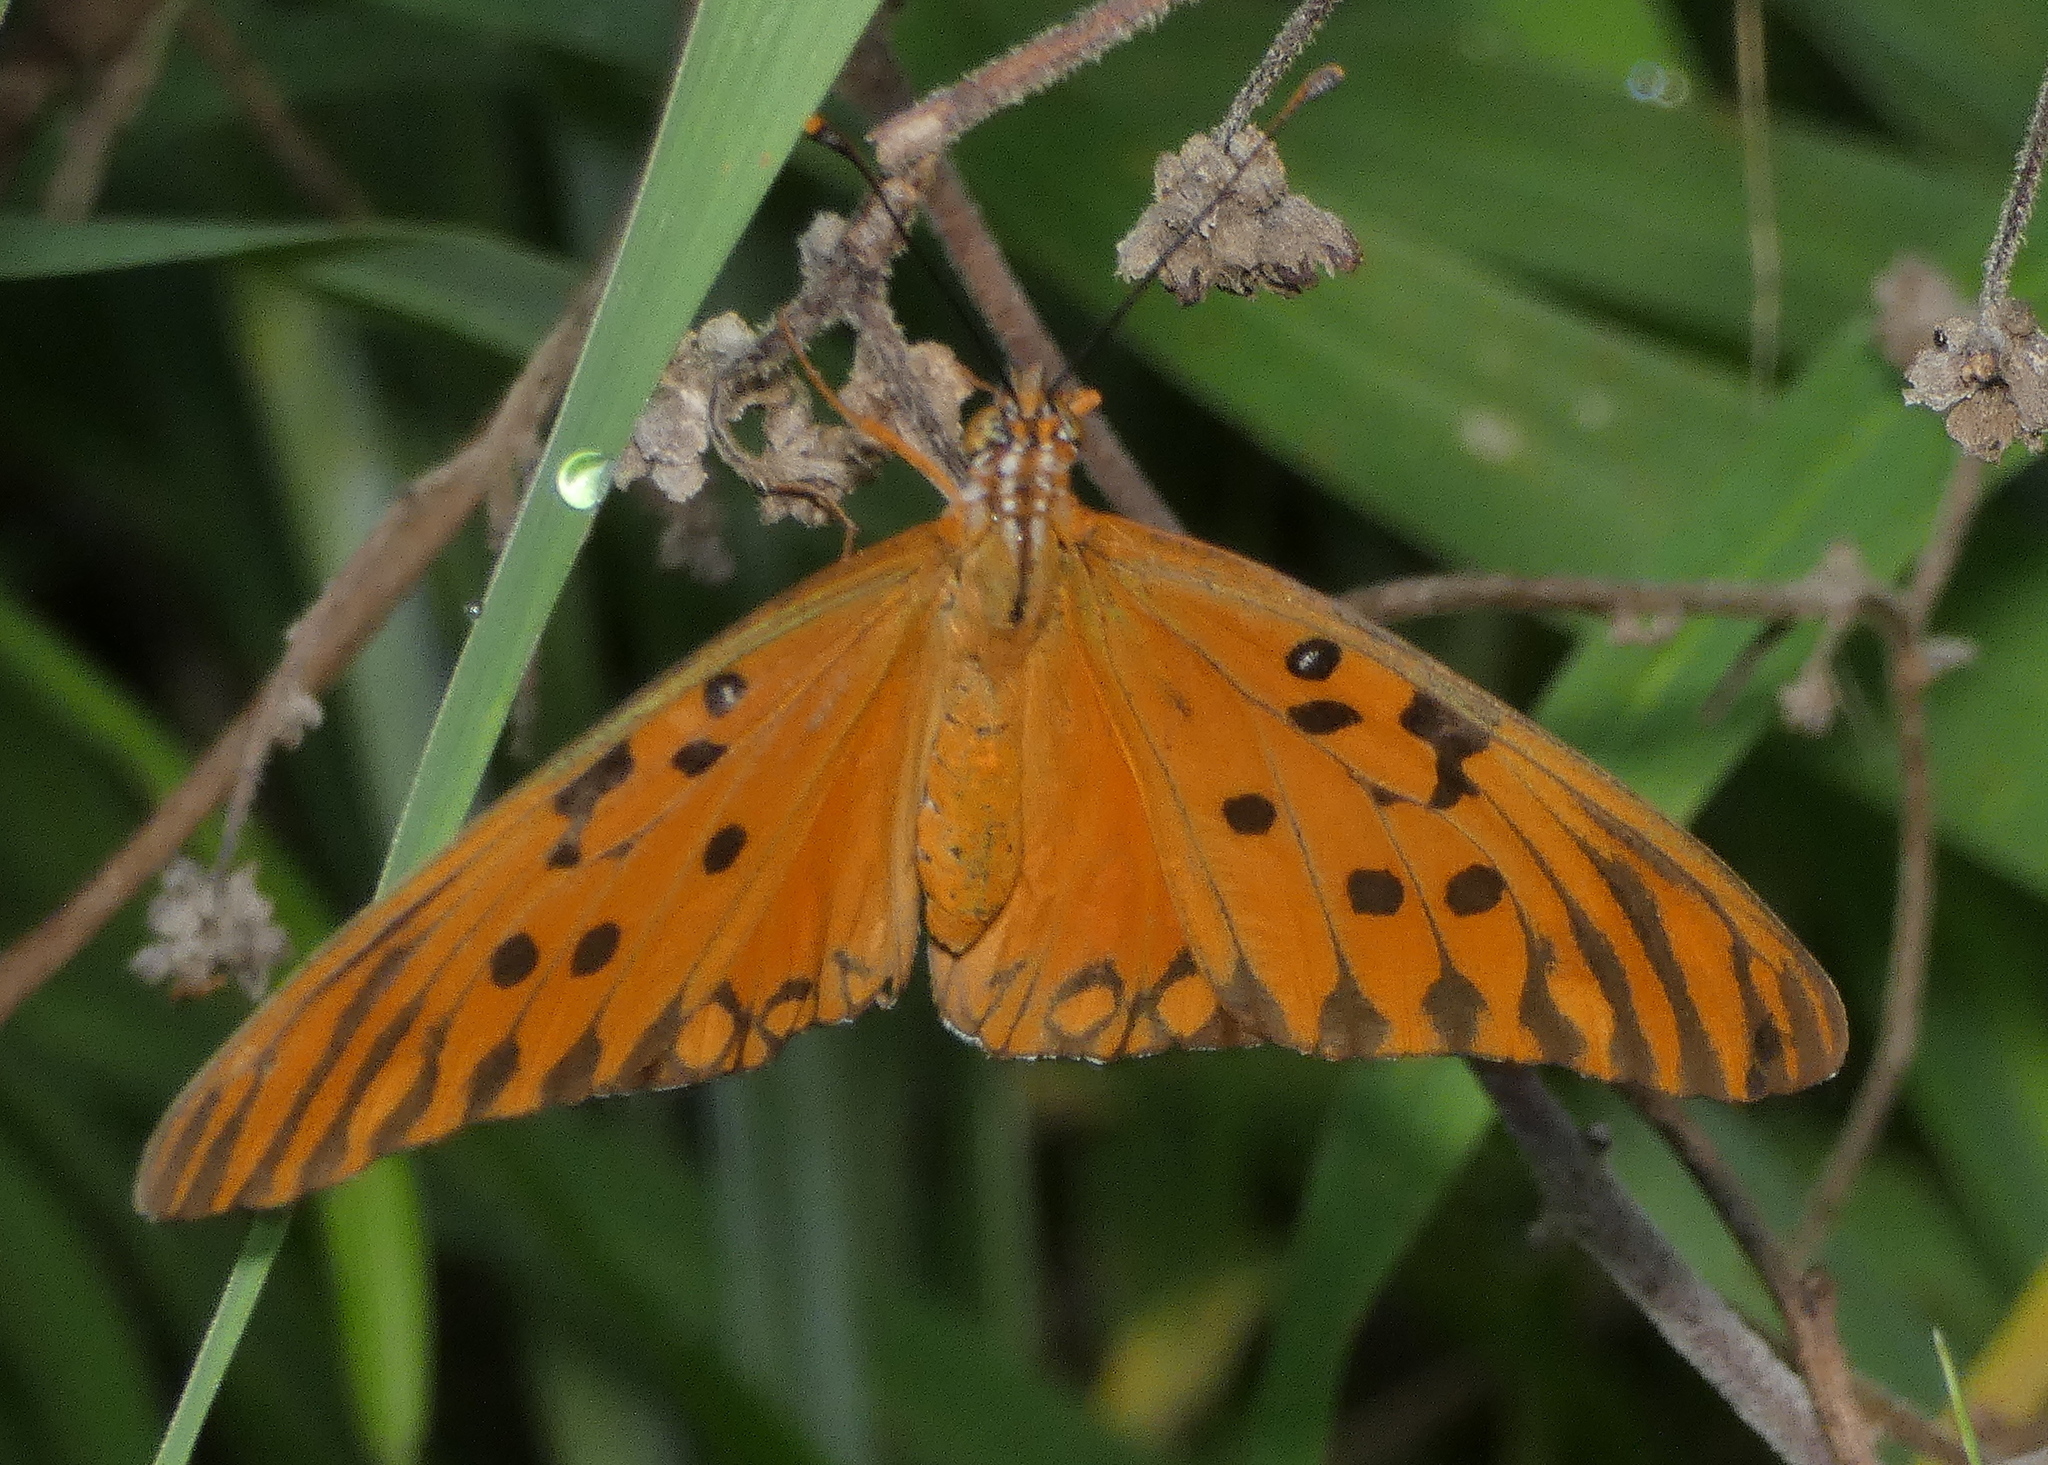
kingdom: Animalia
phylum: Arthropoda
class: Insecta
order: Lepidoptera
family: Nymphalidae
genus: Dione
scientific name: Dione vanillae
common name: Gulf fritillary
